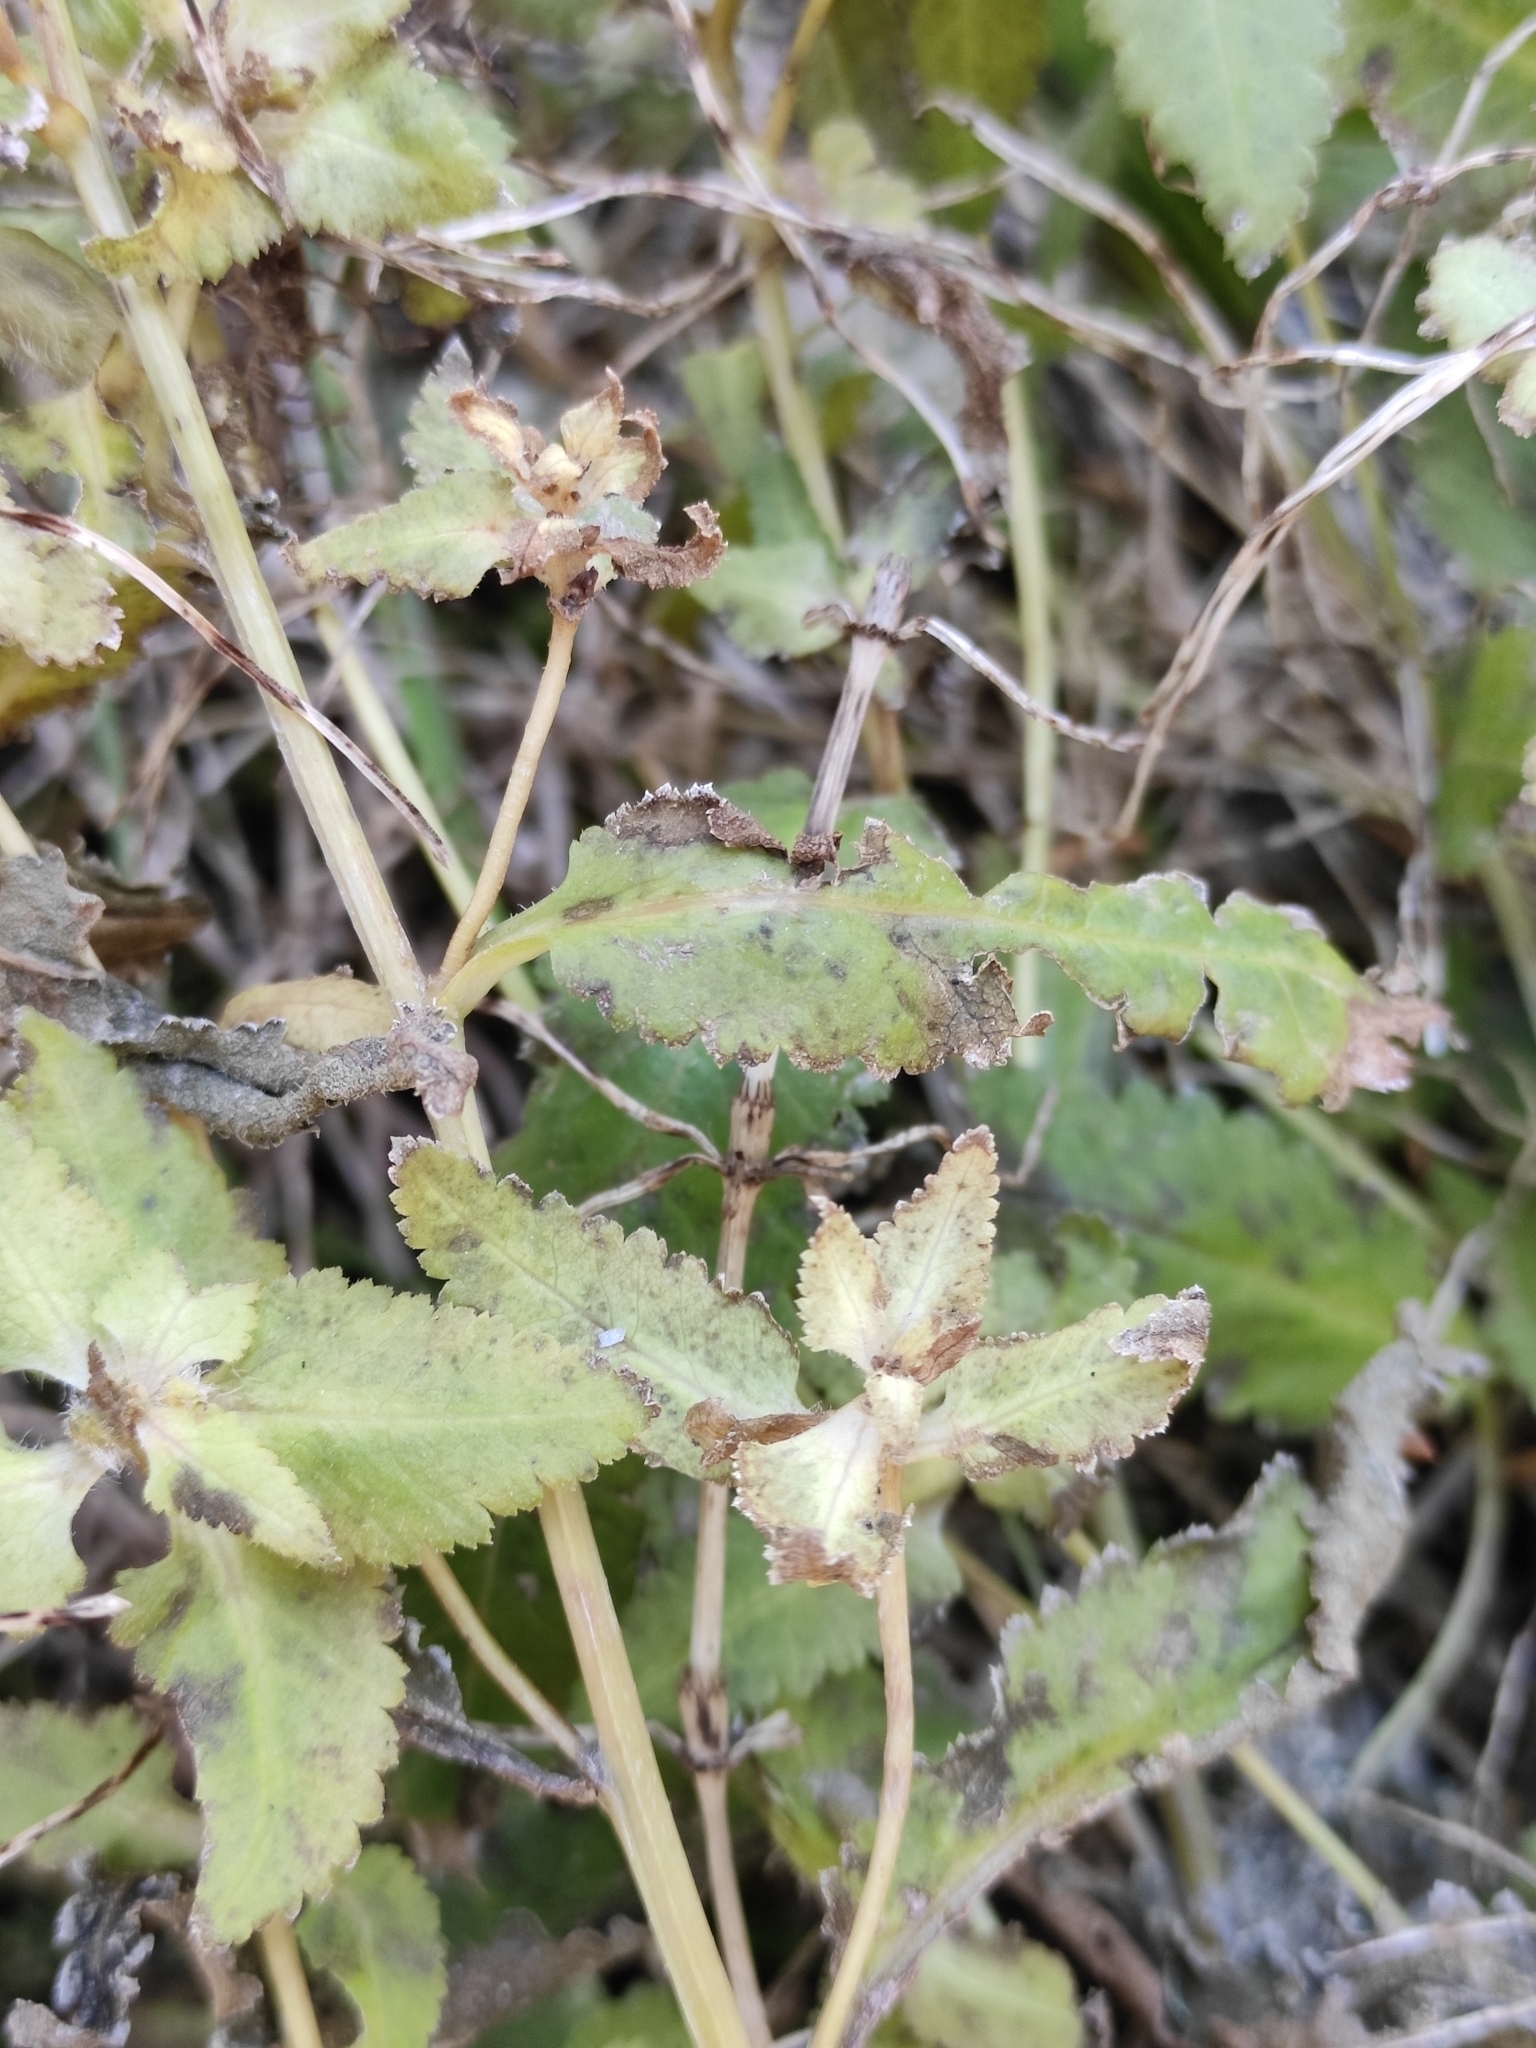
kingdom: Plantae
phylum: Tracheophyta
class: Magnoliopsida
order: Lamiales
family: Orobanchaceae
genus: Pedicularis
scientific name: Pedicularis resupinata
